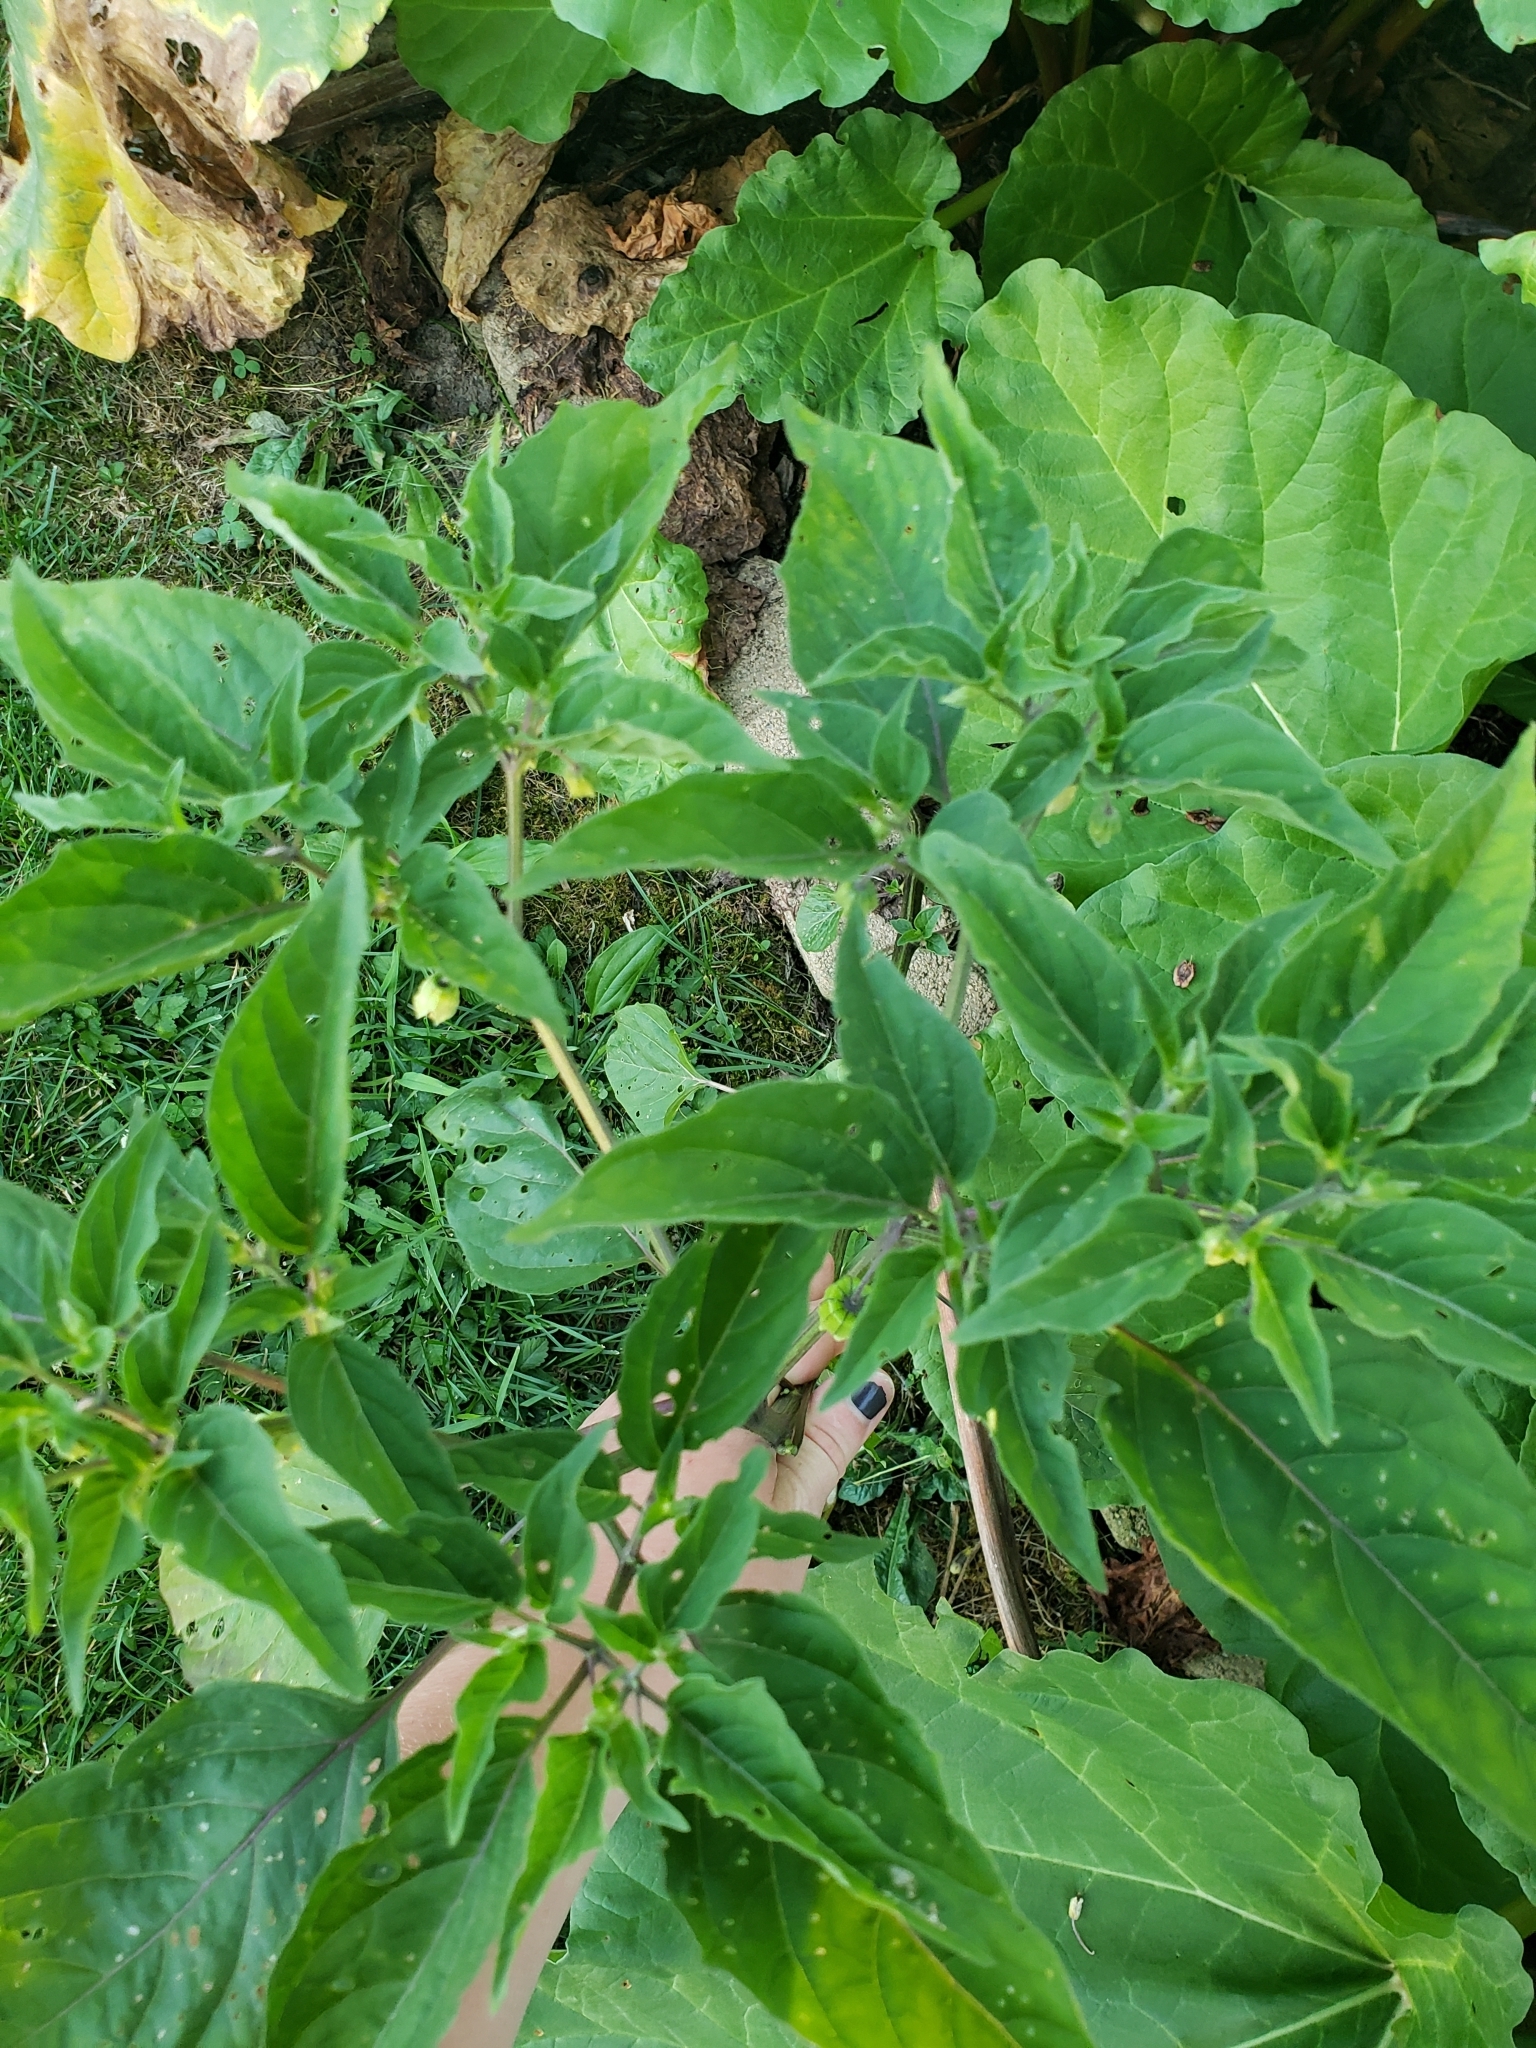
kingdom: Plantae
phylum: Tracheophyta
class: Magnoliopsida
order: Solanales
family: Solanaceae
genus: Physalis
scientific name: Physalis longifolia
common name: Common ground-cherry
